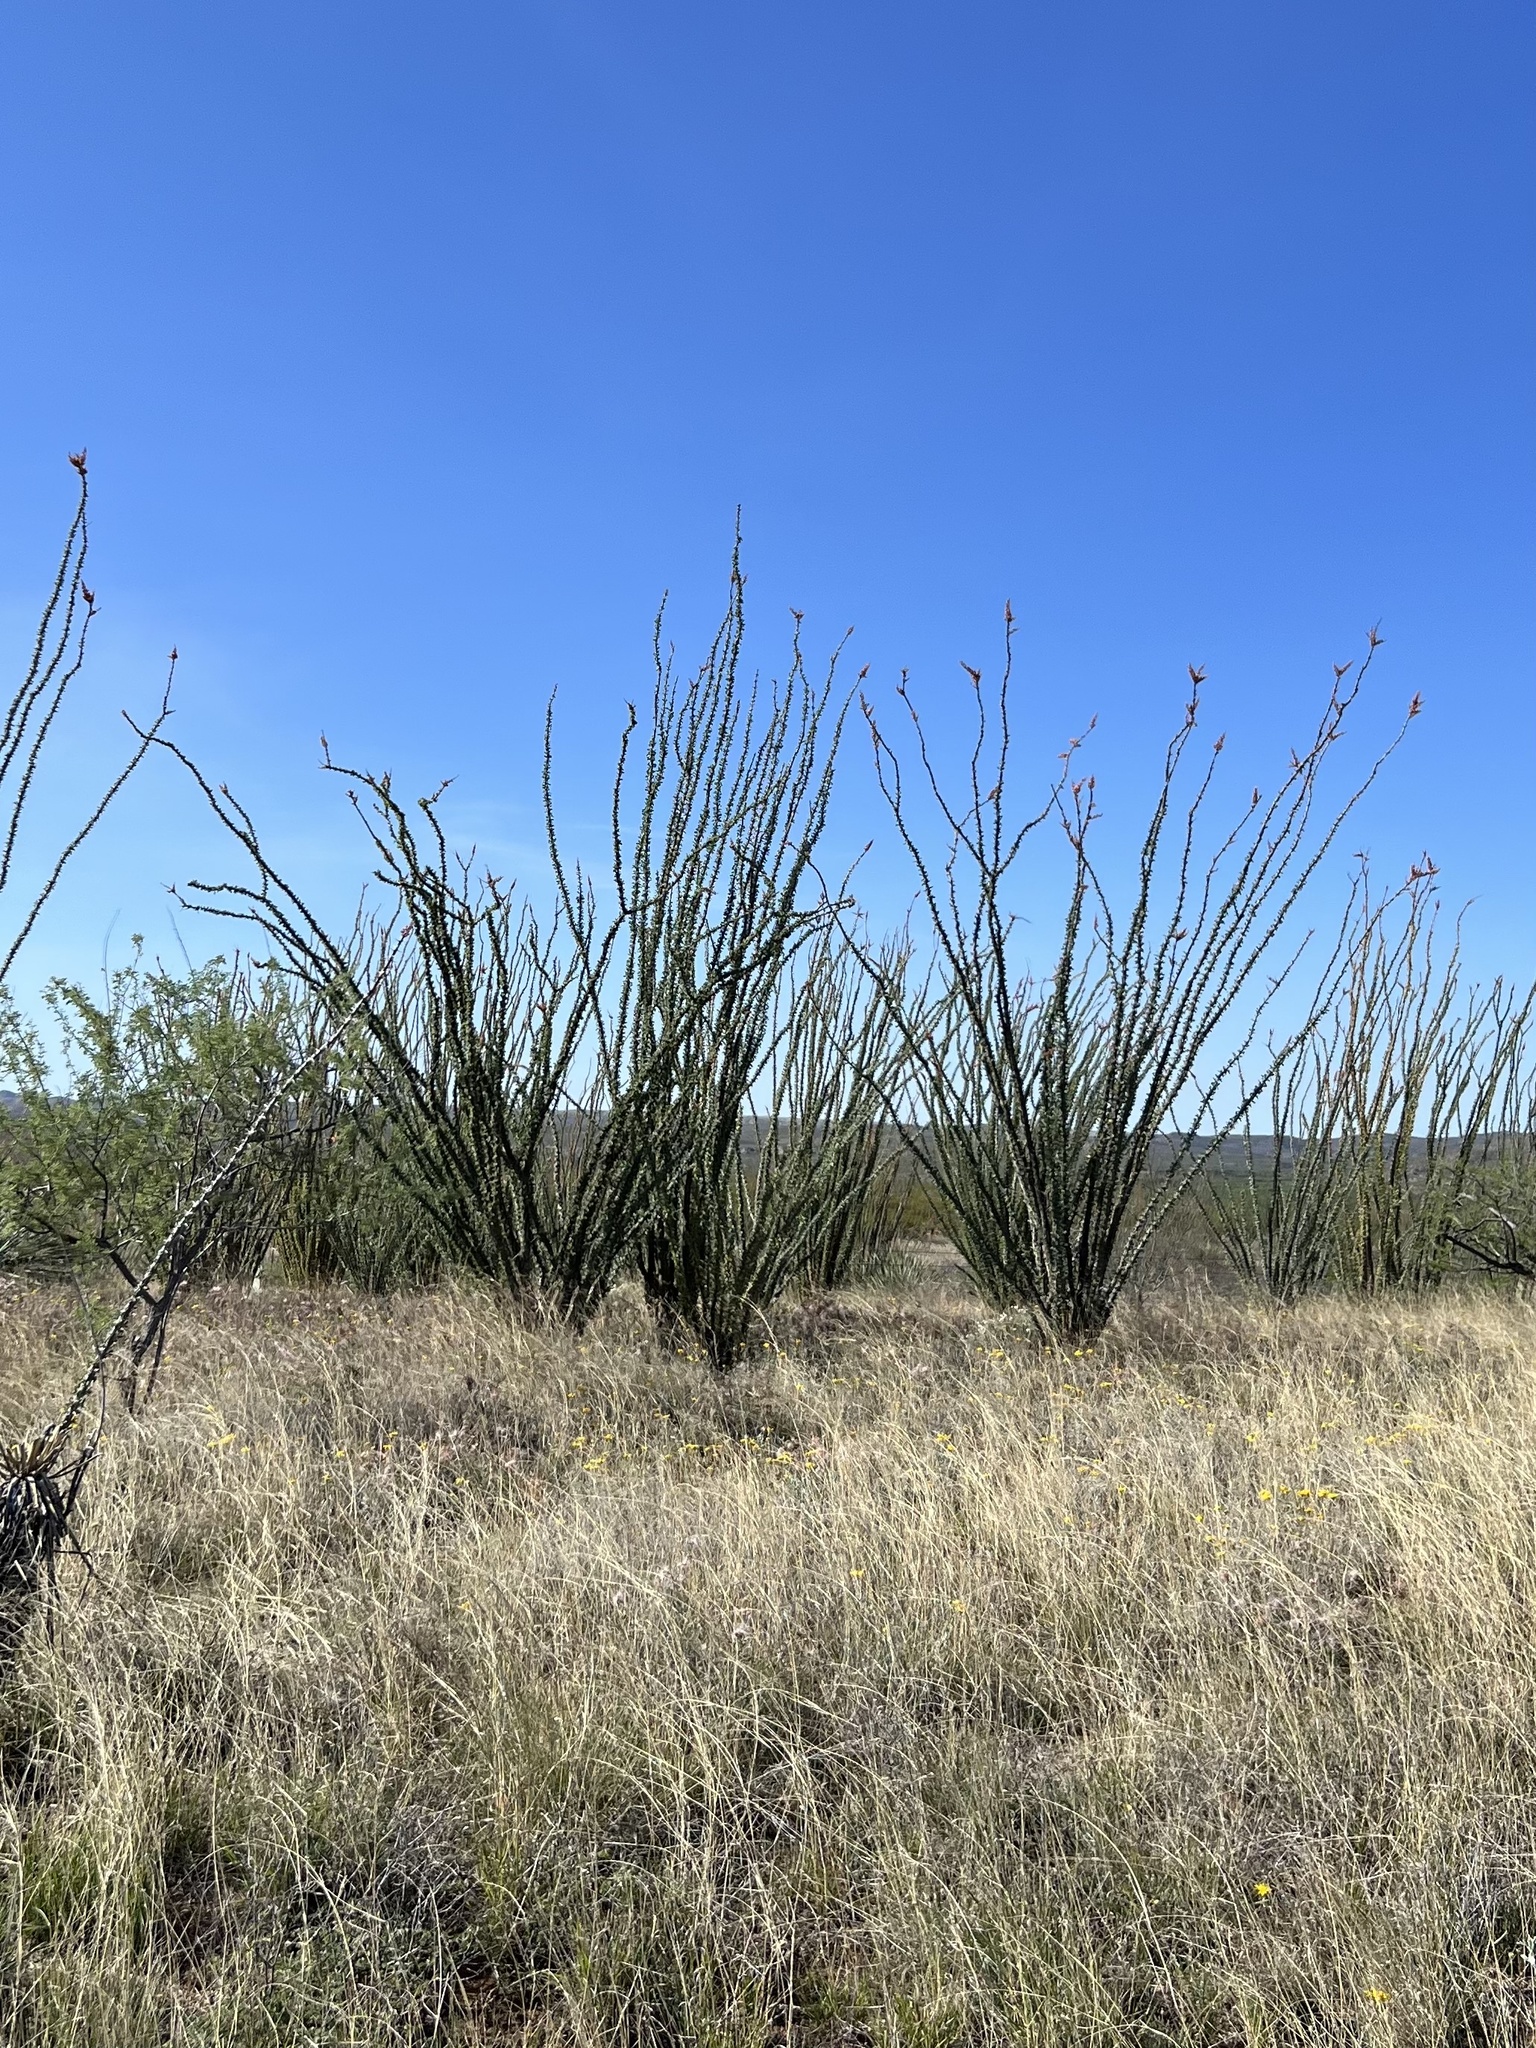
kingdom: Plantae
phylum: Tracheophyta
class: Magnoliopsida
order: Ericales
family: Fouquieriaceae
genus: Fouquieria
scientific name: Fouquieria splendens
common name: Vine-cactus
